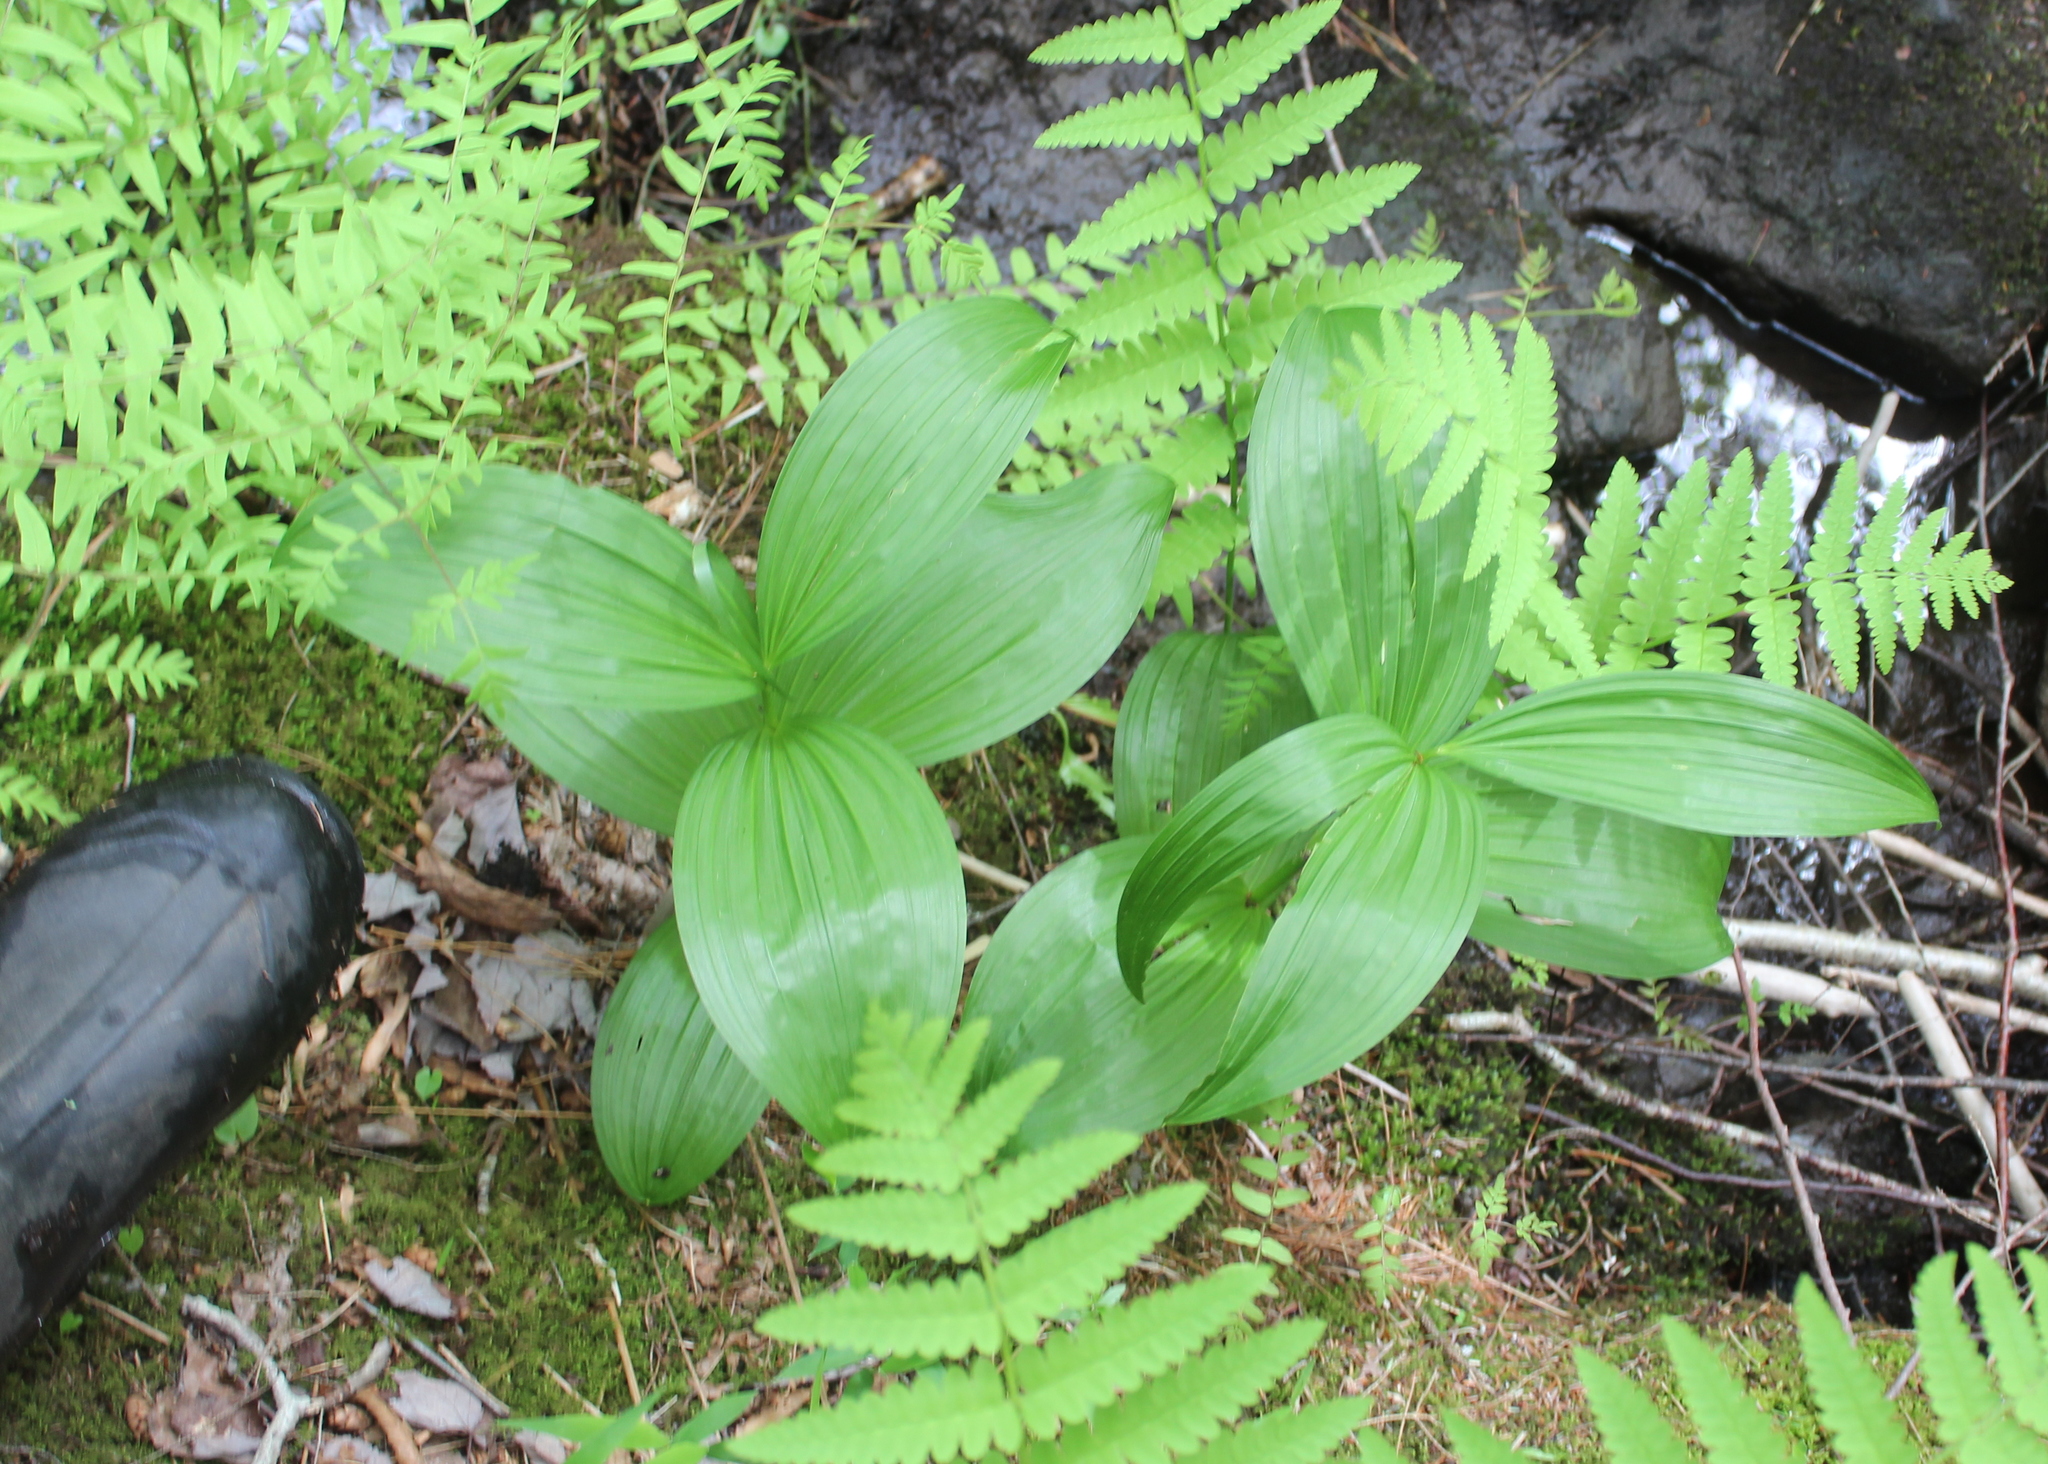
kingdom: Plantae
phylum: Tracheophyta
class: Liliopsida
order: Liliales
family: Melanthiaceae
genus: Veratrum
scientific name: Veratrum viride
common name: American false hellebore
